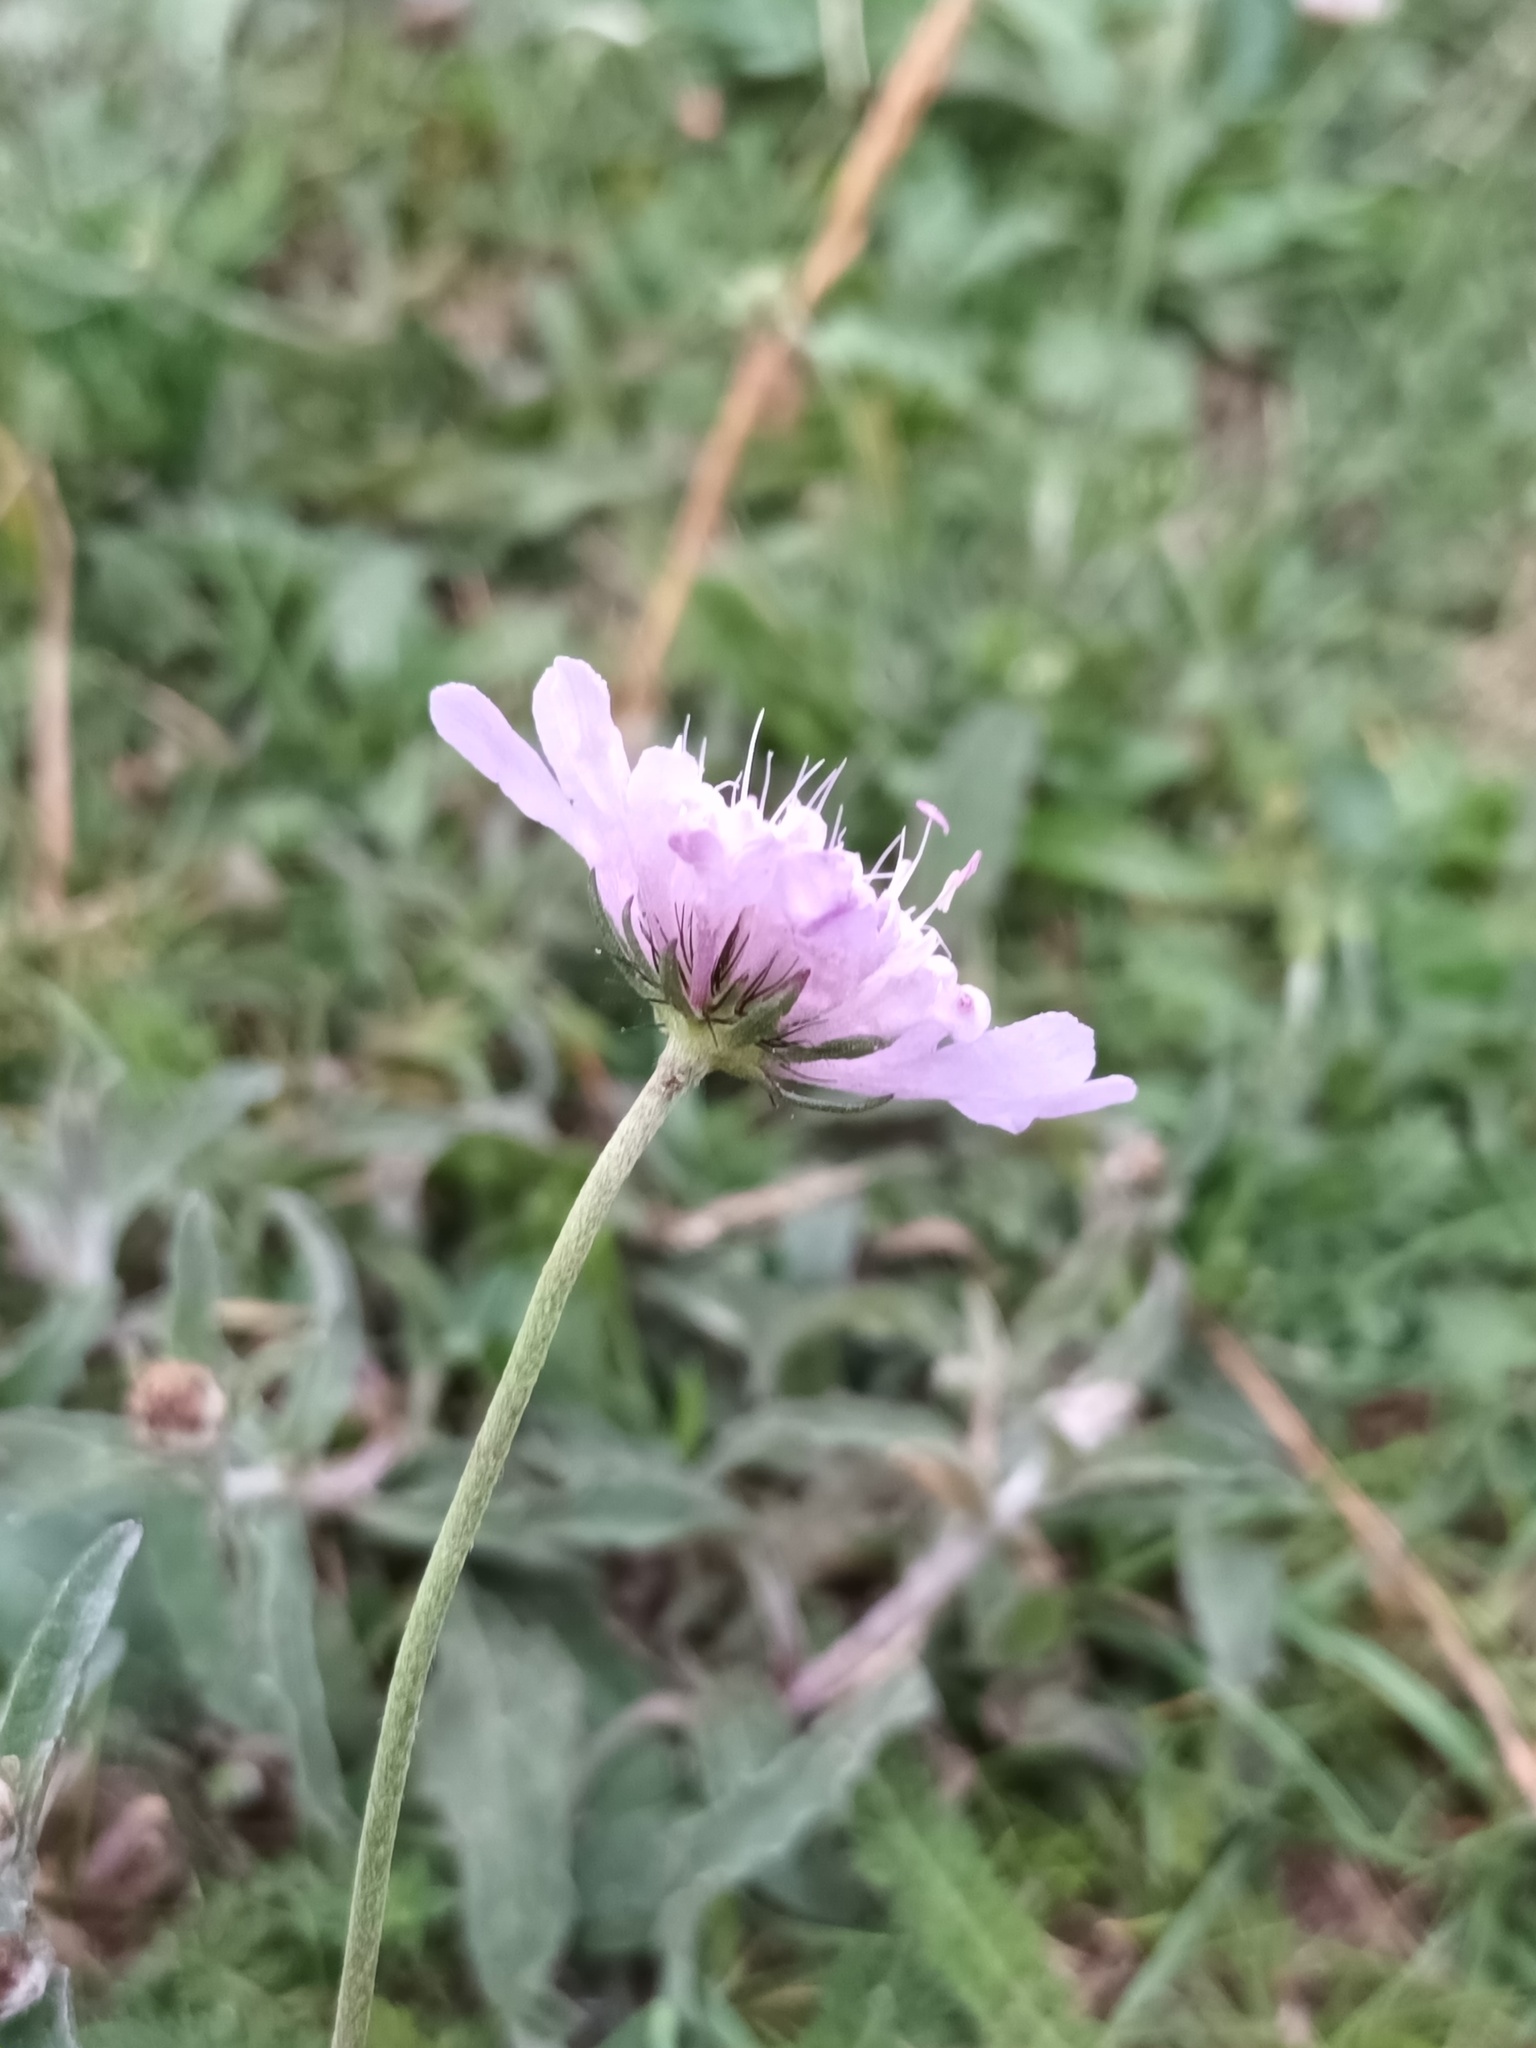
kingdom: Plantae
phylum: Tracheophyta
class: Magnoliopsida
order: Dipsacales
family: Caprifoliaceae
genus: Scabiosa
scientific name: Scabiosa columbaria
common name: Small scabious
